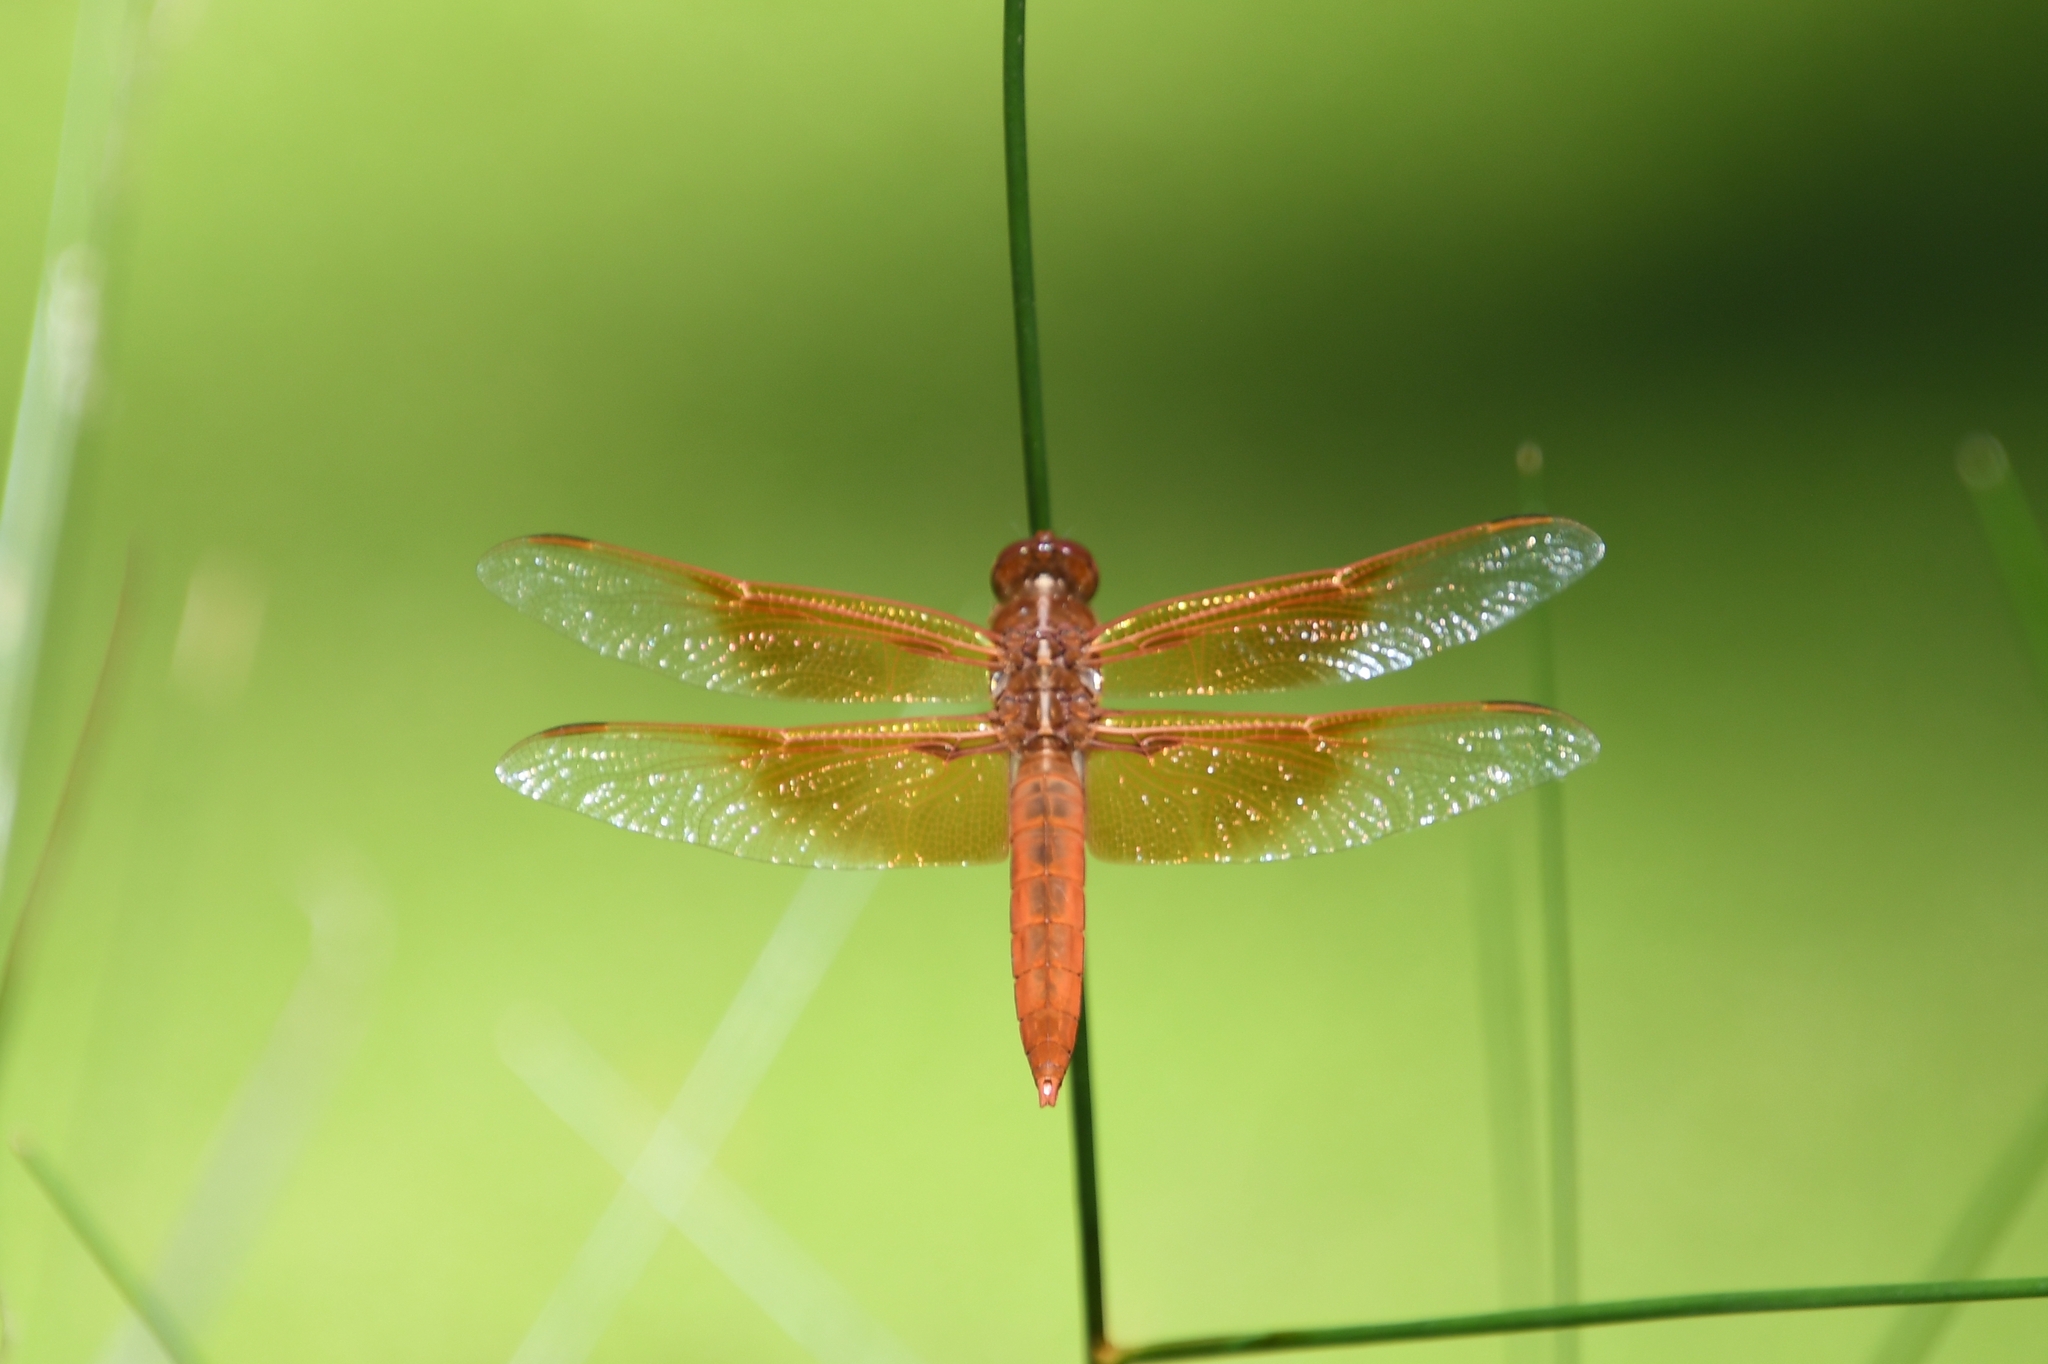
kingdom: Animalia
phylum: Arthropoda
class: Insecta
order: Odonata
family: Libellulidae
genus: Libellula
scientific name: Libellula saturata
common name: Flame skimmer
